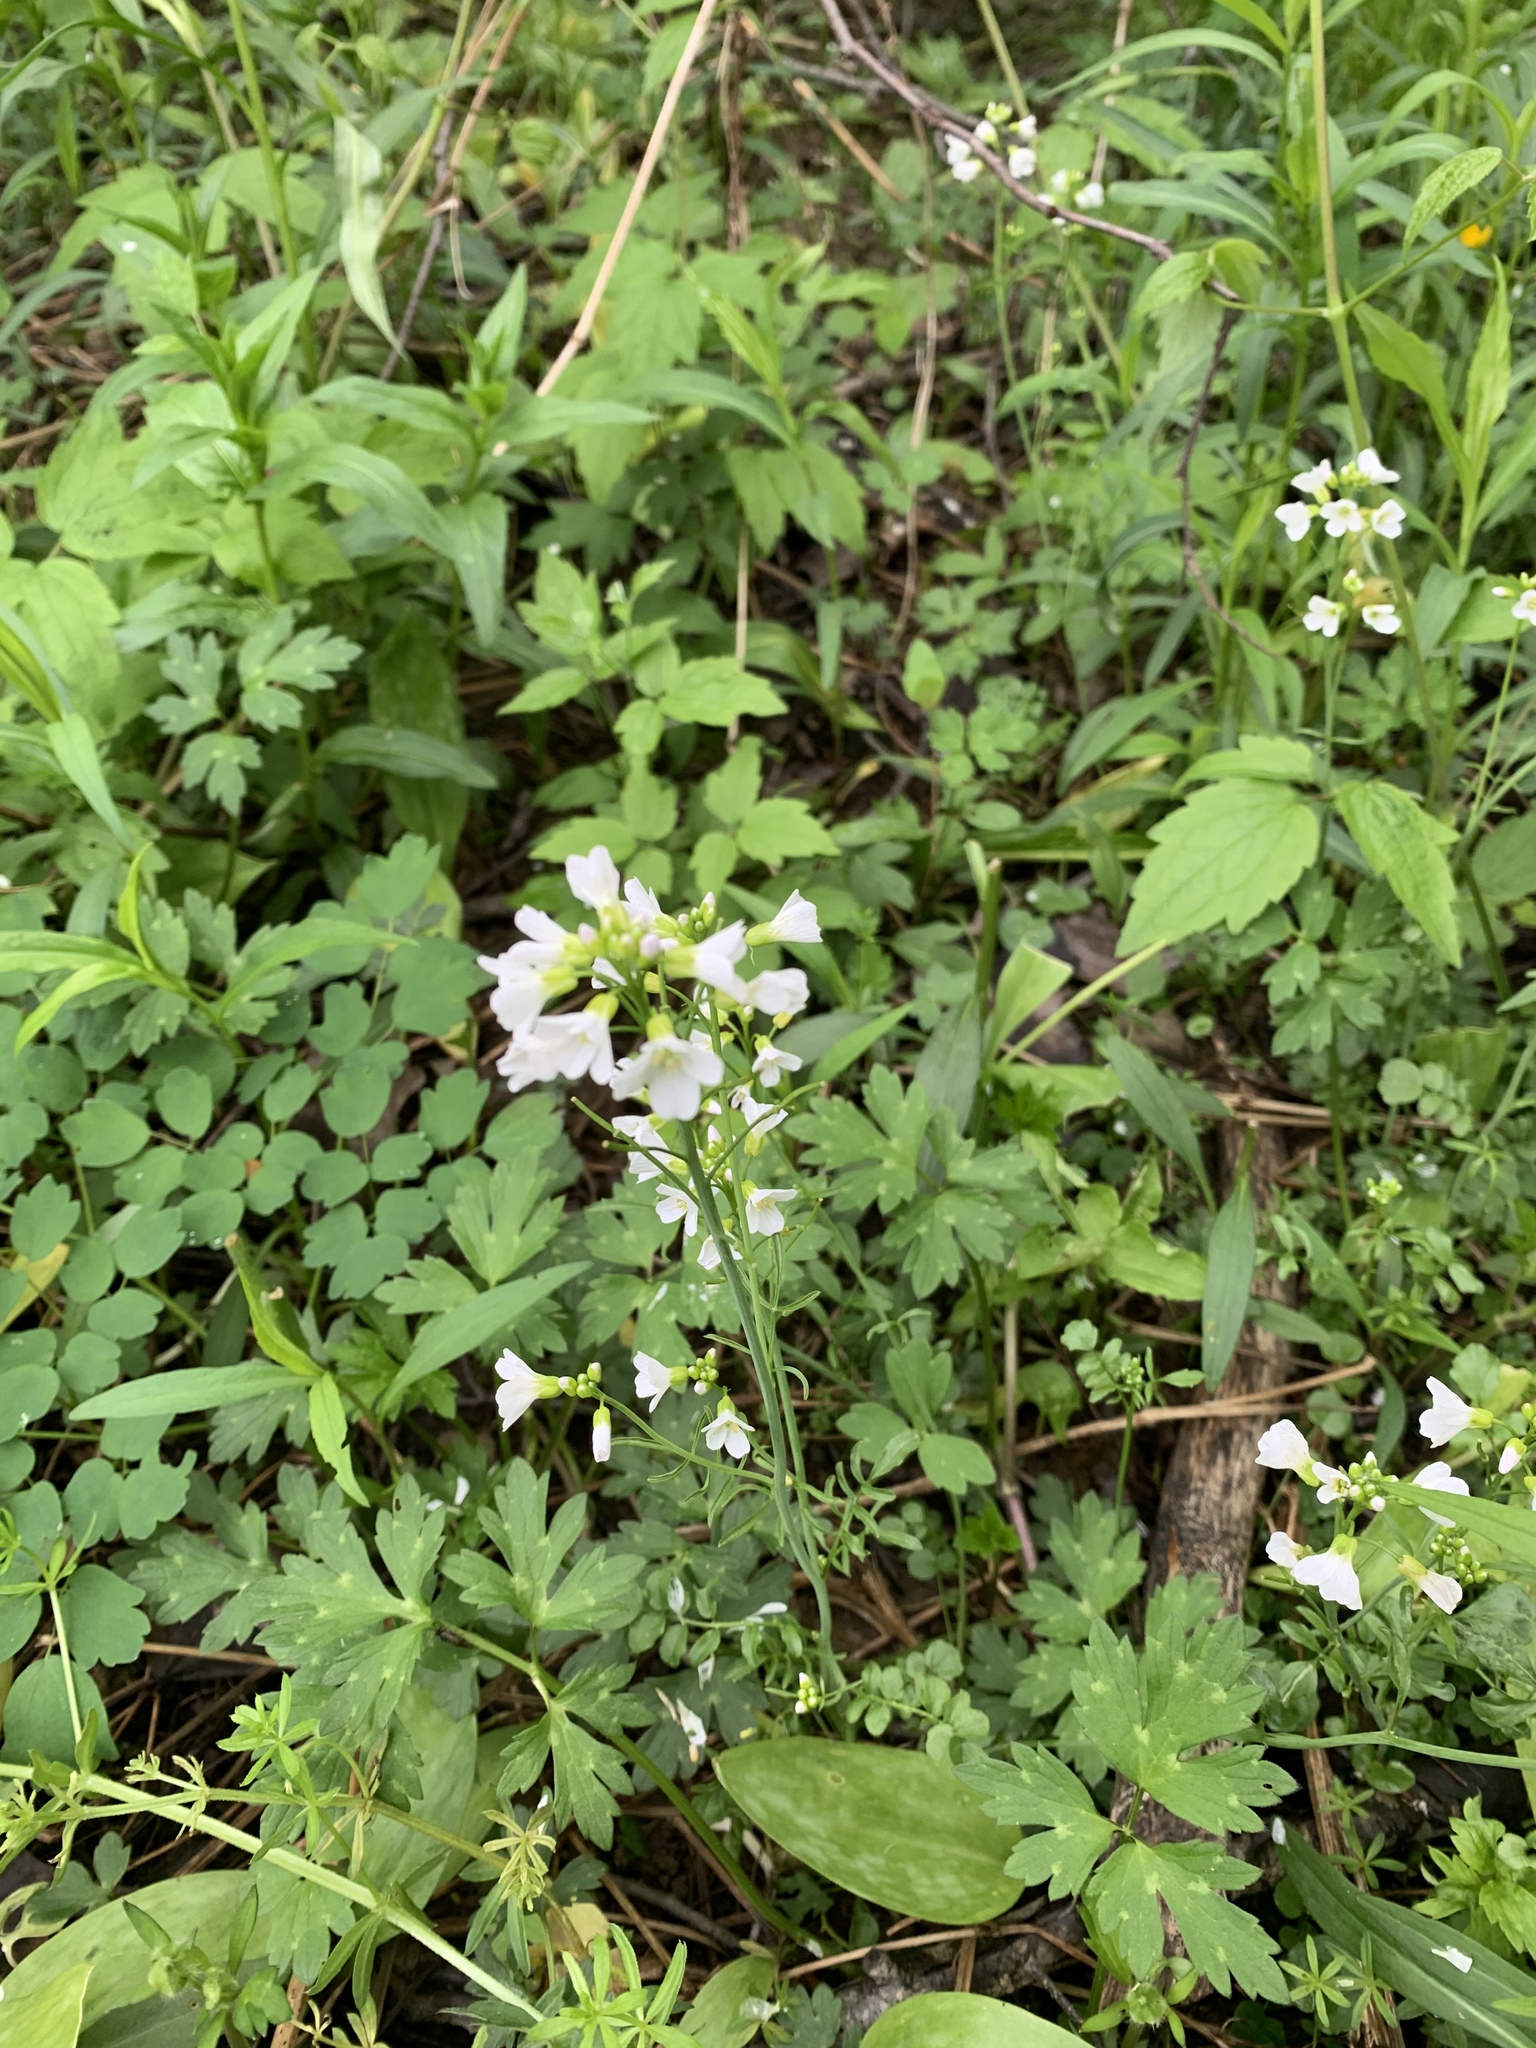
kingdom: Plantae
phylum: Tracheophyta
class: Magnoliopsida
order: Brassicales
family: Brassicaceae
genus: Cardamine
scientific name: Cardamine pratensis
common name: Cuckoo flower
